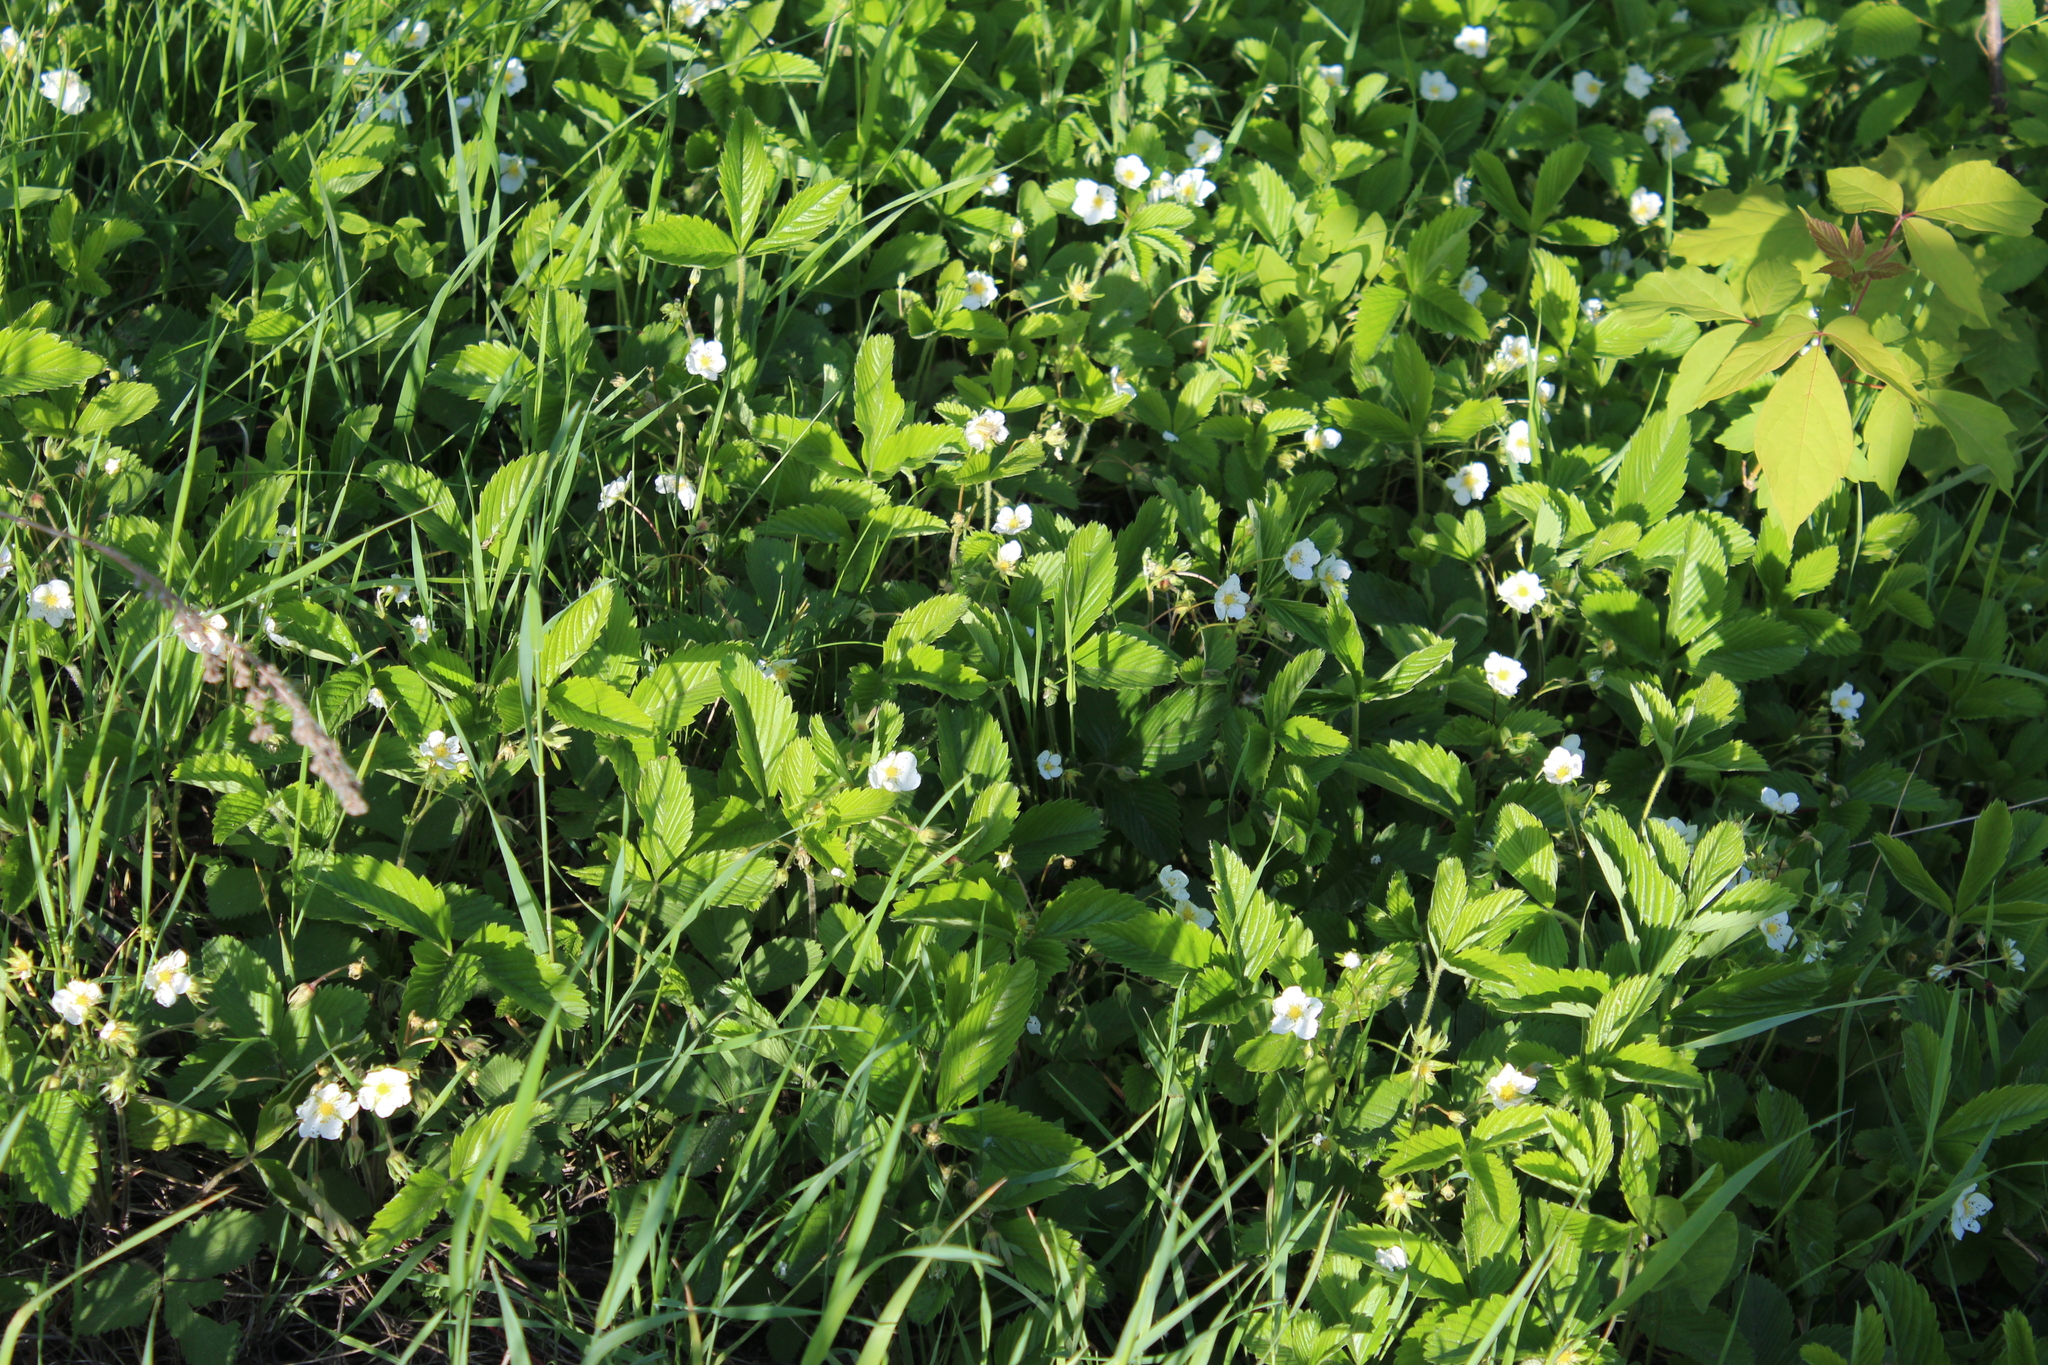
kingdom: Plantae
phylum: Tracheophyta
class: Magnoliopsida
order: Rosales
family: Rosaceae
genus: Fragaria
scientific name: Fragaria viridis
